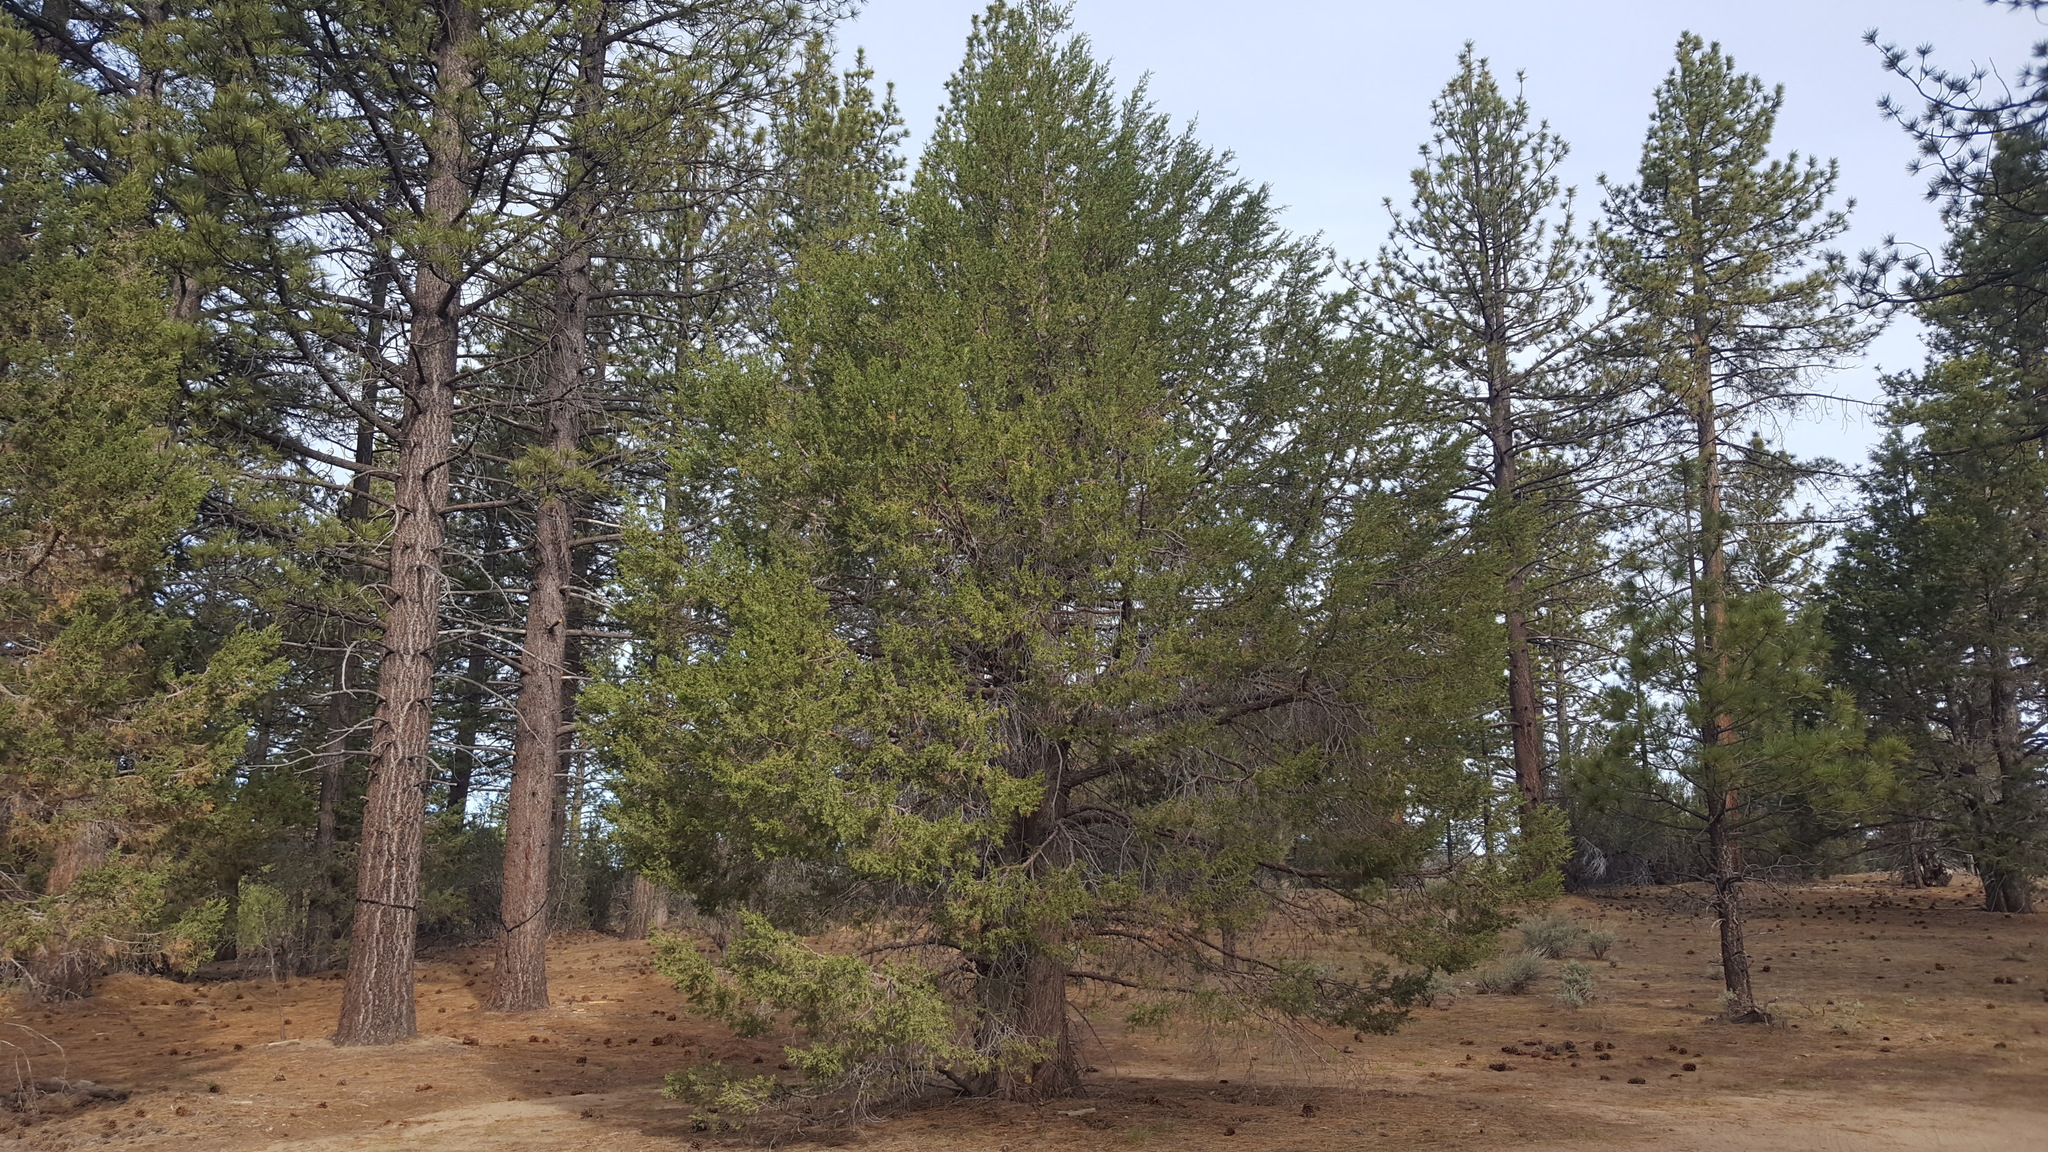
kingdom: Plantae
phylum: Tracheophyta
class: Pinopsida
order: Pinales
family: Cupressaceae
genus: Juniperus
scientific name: Juniperus occidentalis
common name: Western juniper
